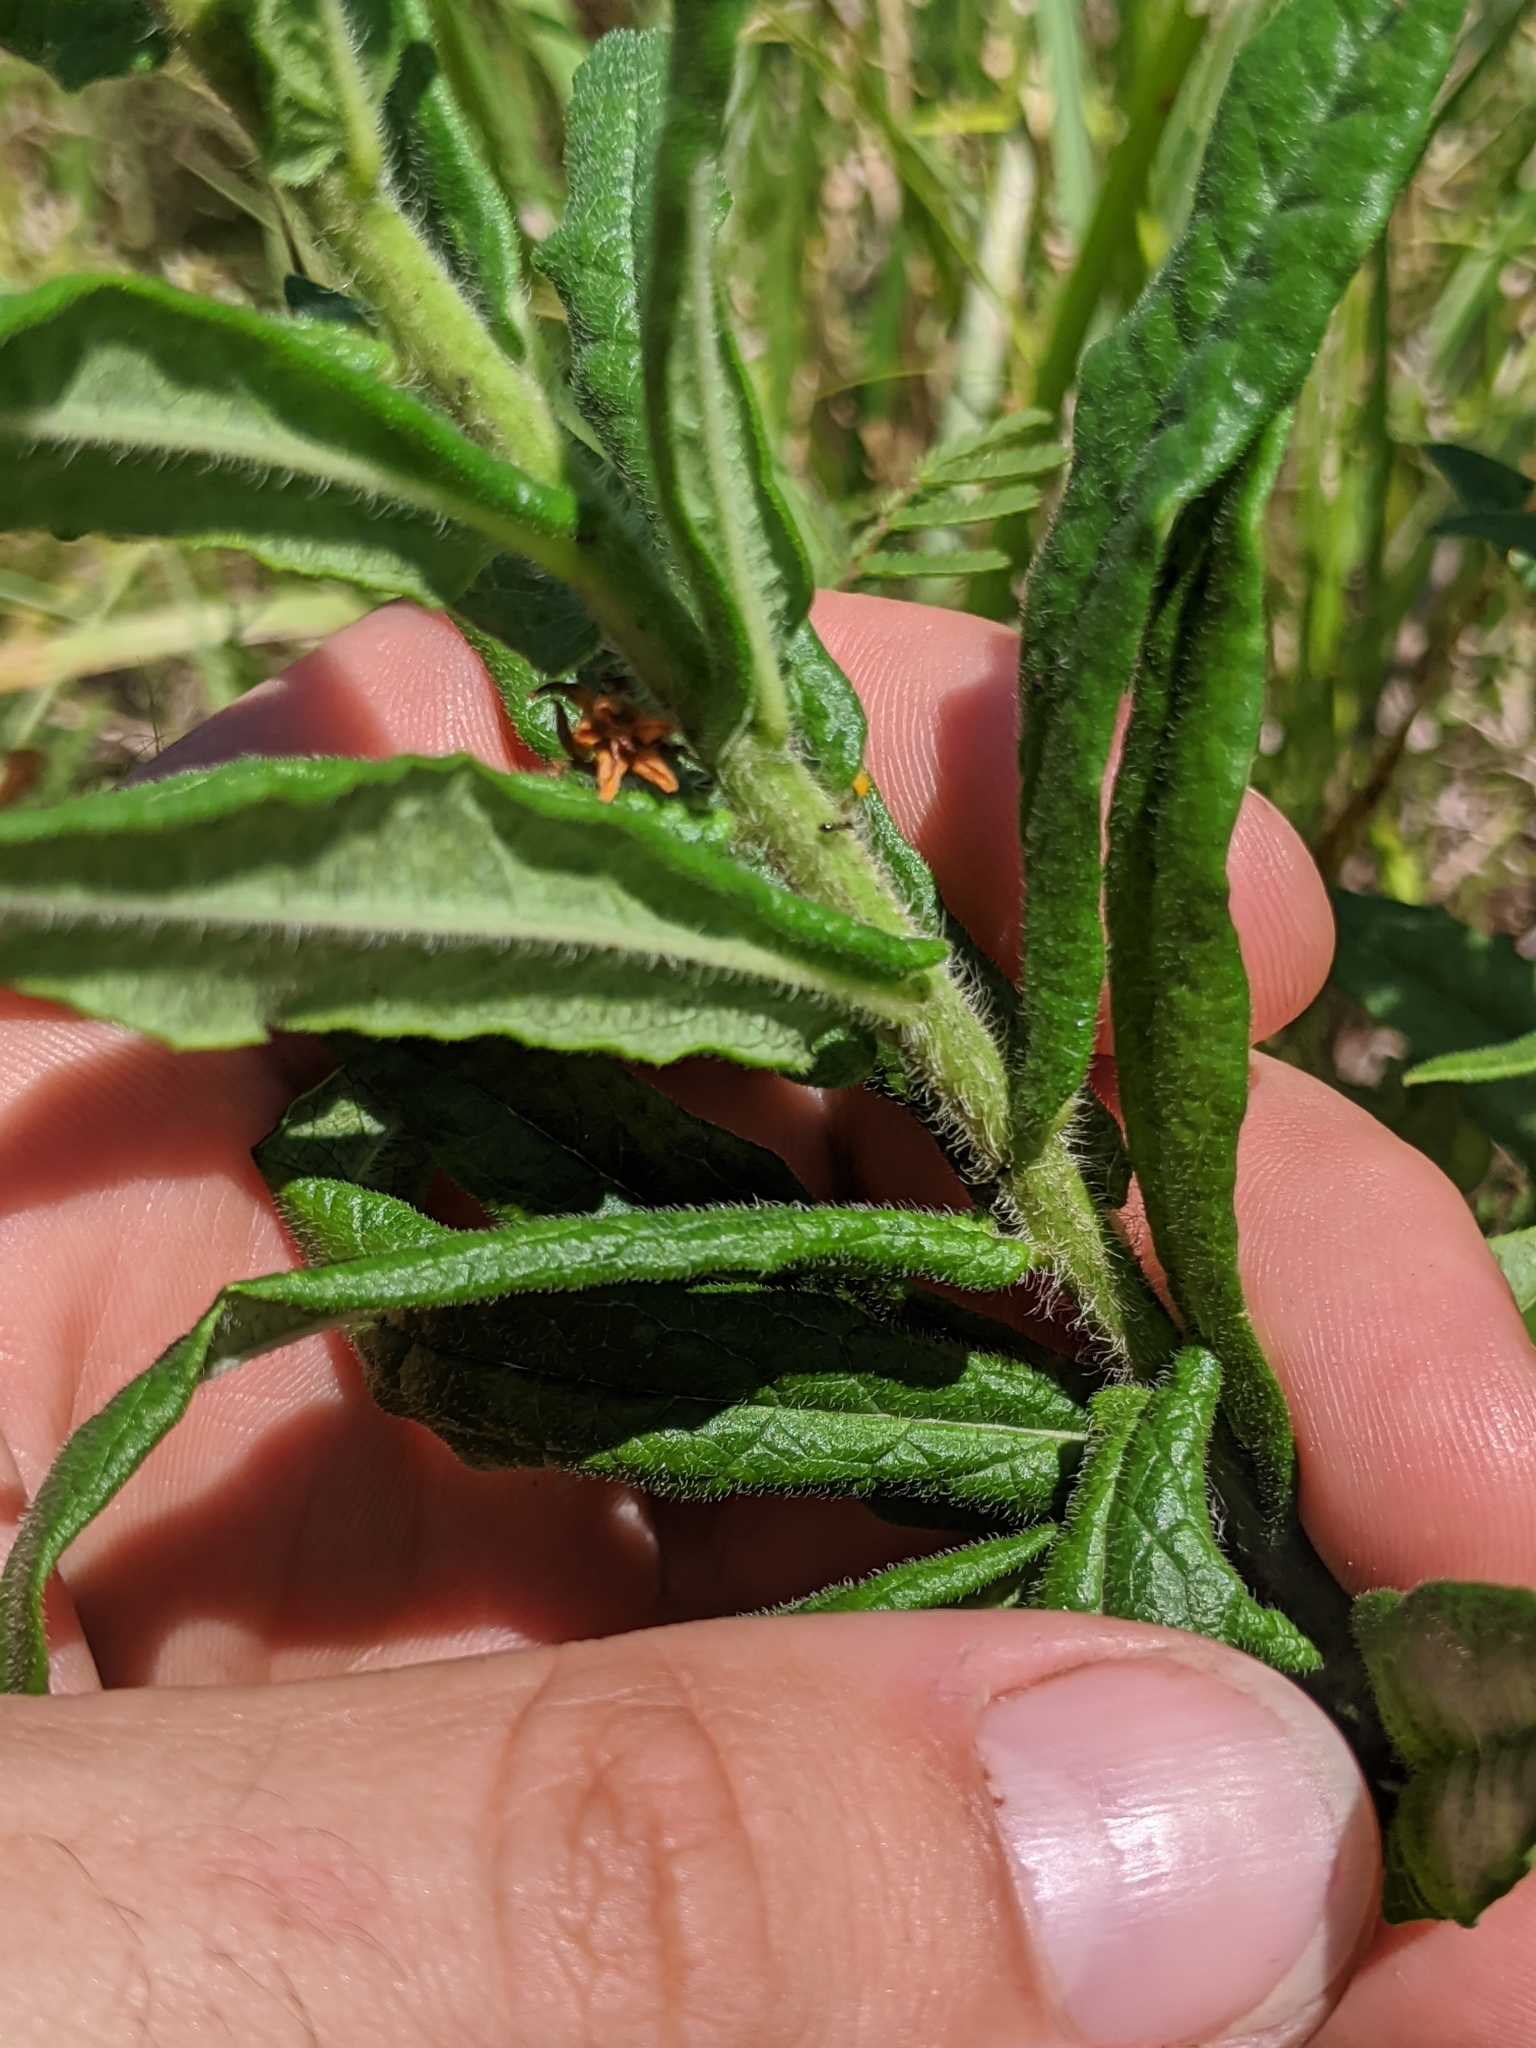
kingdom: Plantae
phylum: Tracheophyta
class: Magnoliopsida
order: Gentianales
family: Apocynaceae
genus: Asclepias
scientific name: Asclepias tuberosa
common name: Butterfly milkweed
